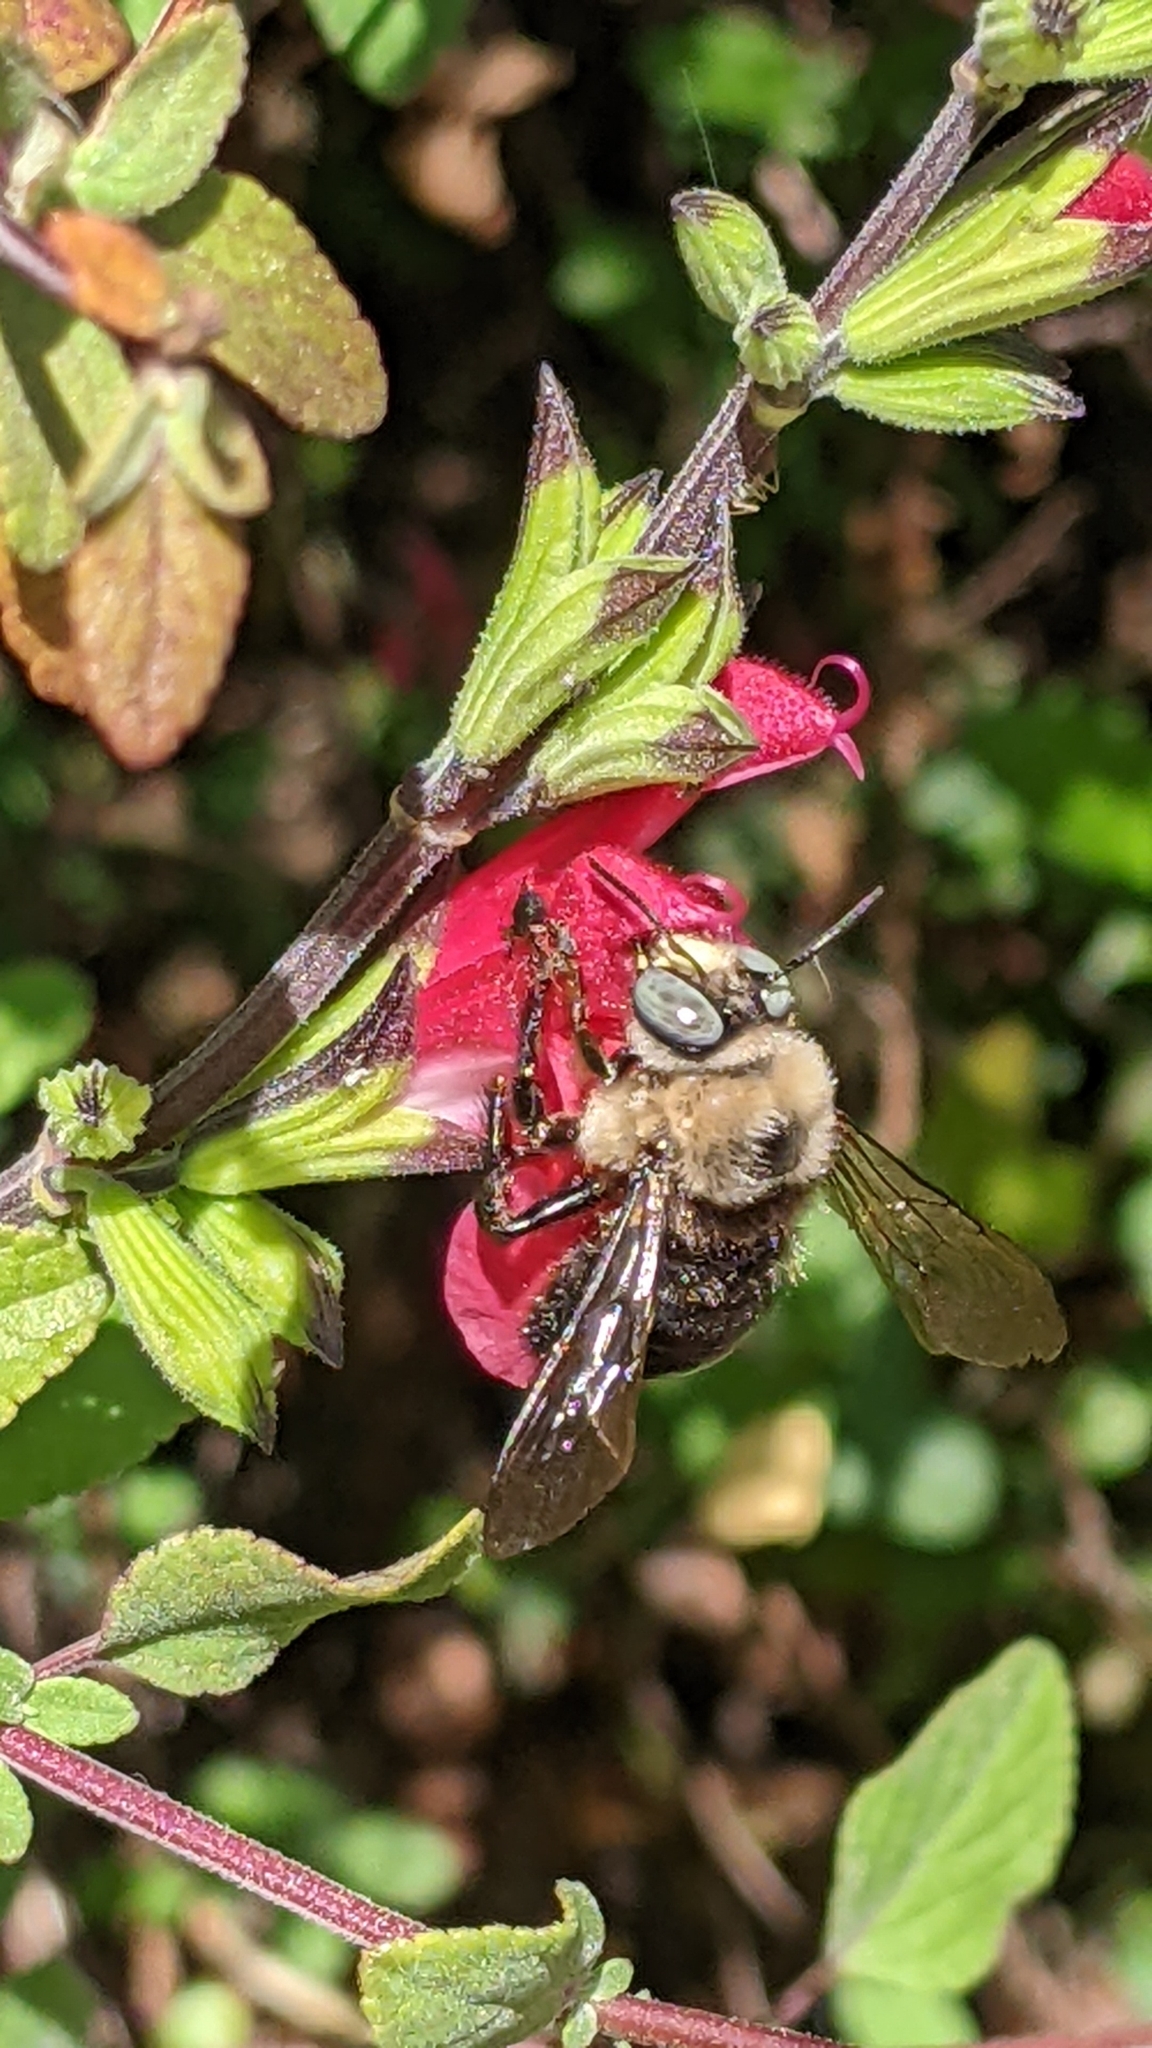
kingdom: Animalia
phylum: Arthropoda
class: Insecta
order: Hymenoptera
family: Apidae
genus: Xylocopa
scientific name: Xylocopa tabaniformis
